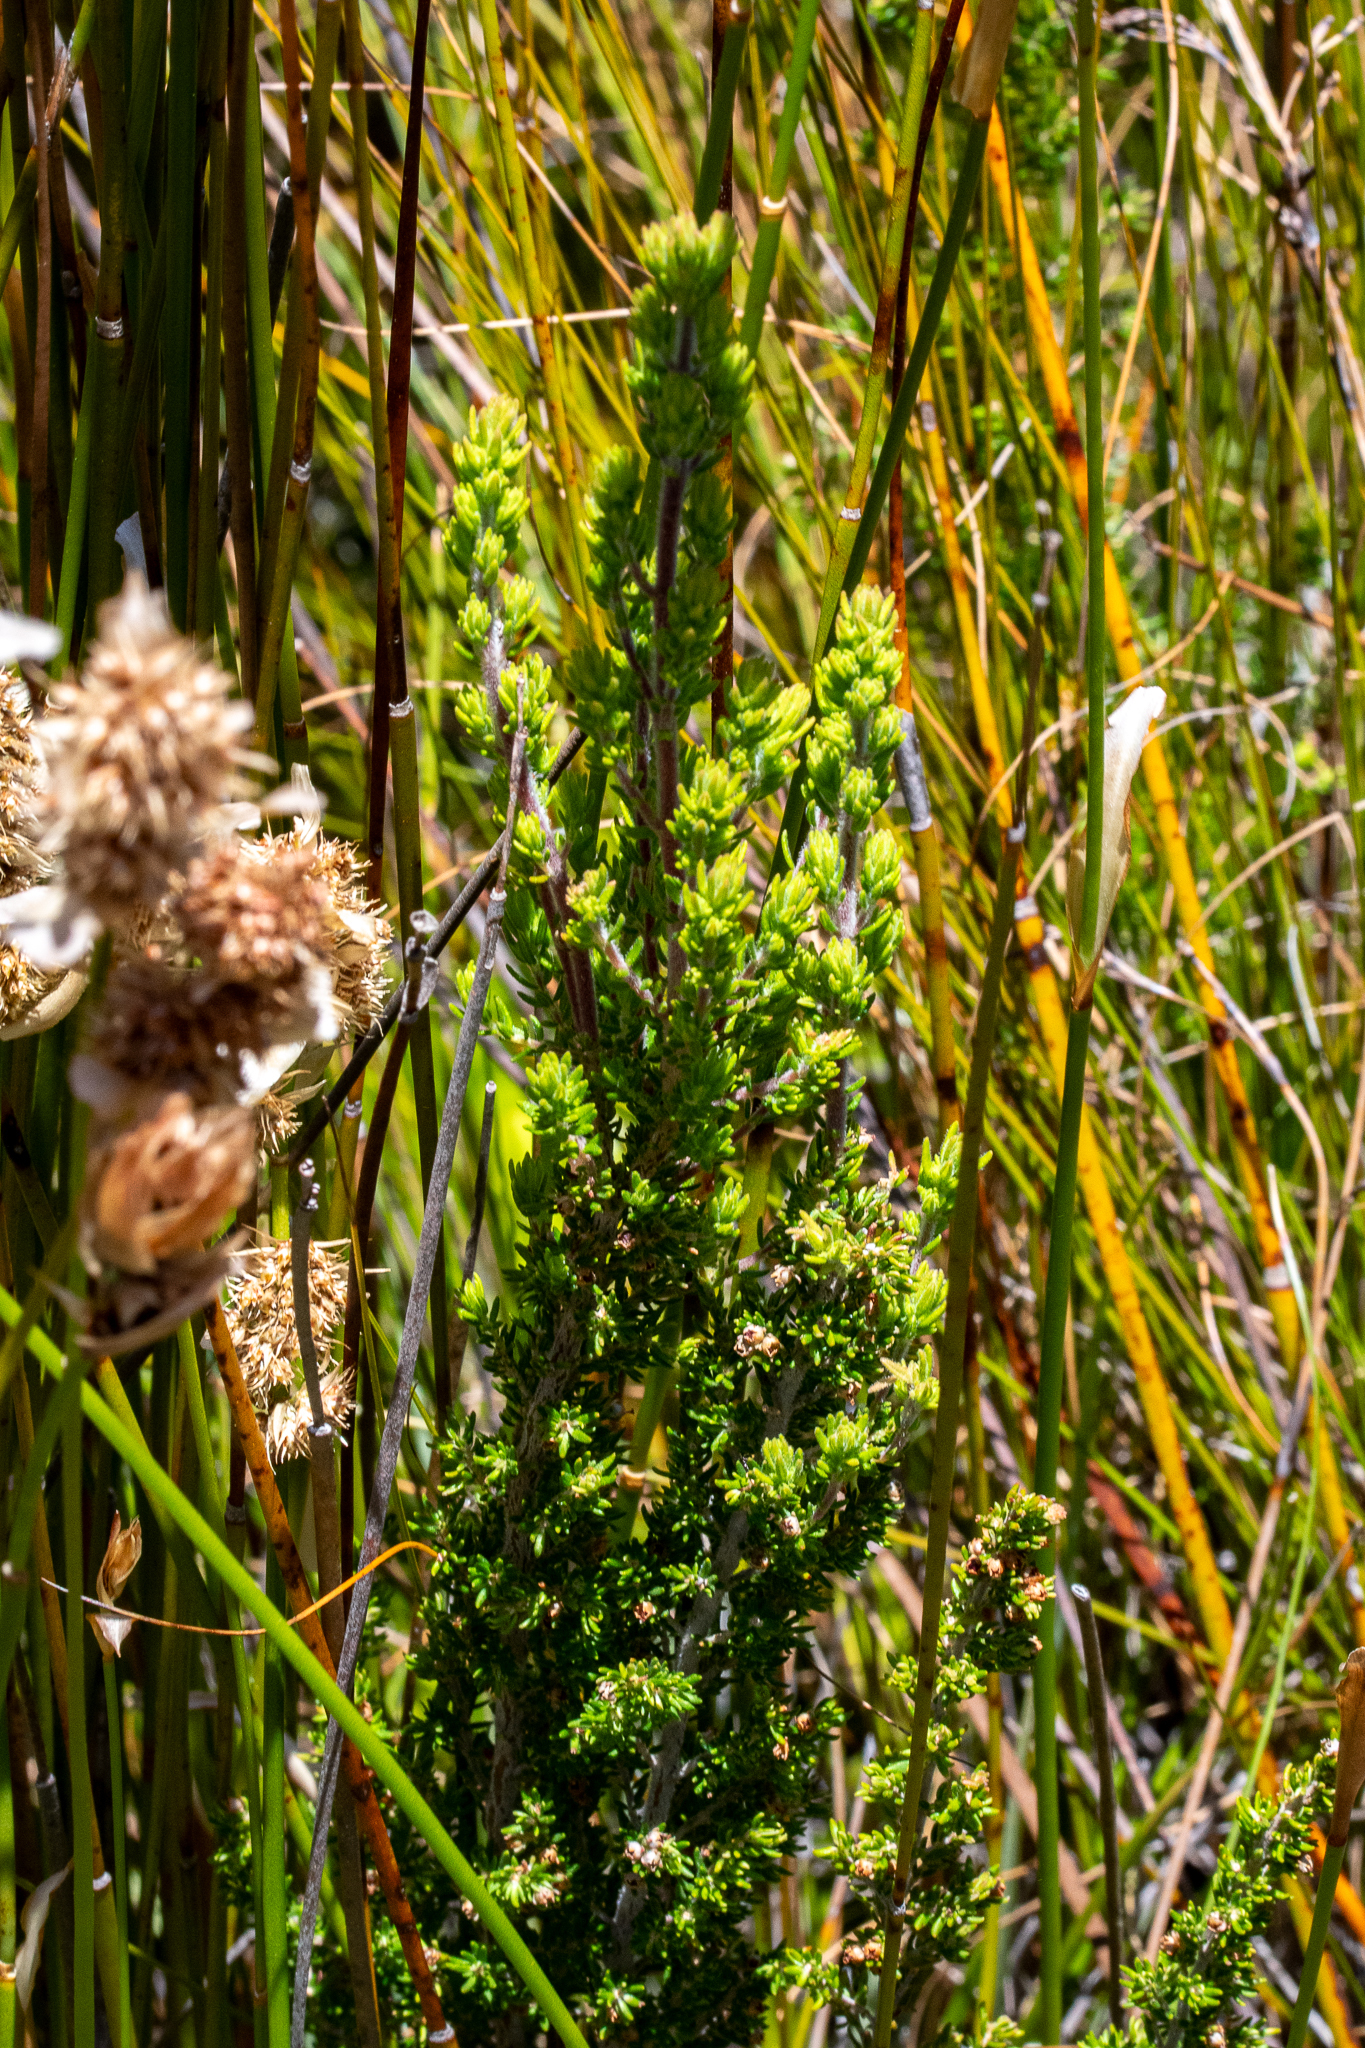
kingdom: Plantae
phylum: Tracheophyta
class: Magnoliopsida
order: Ericales
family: Ericaceae
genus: Erica
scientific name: Erica hispidula
